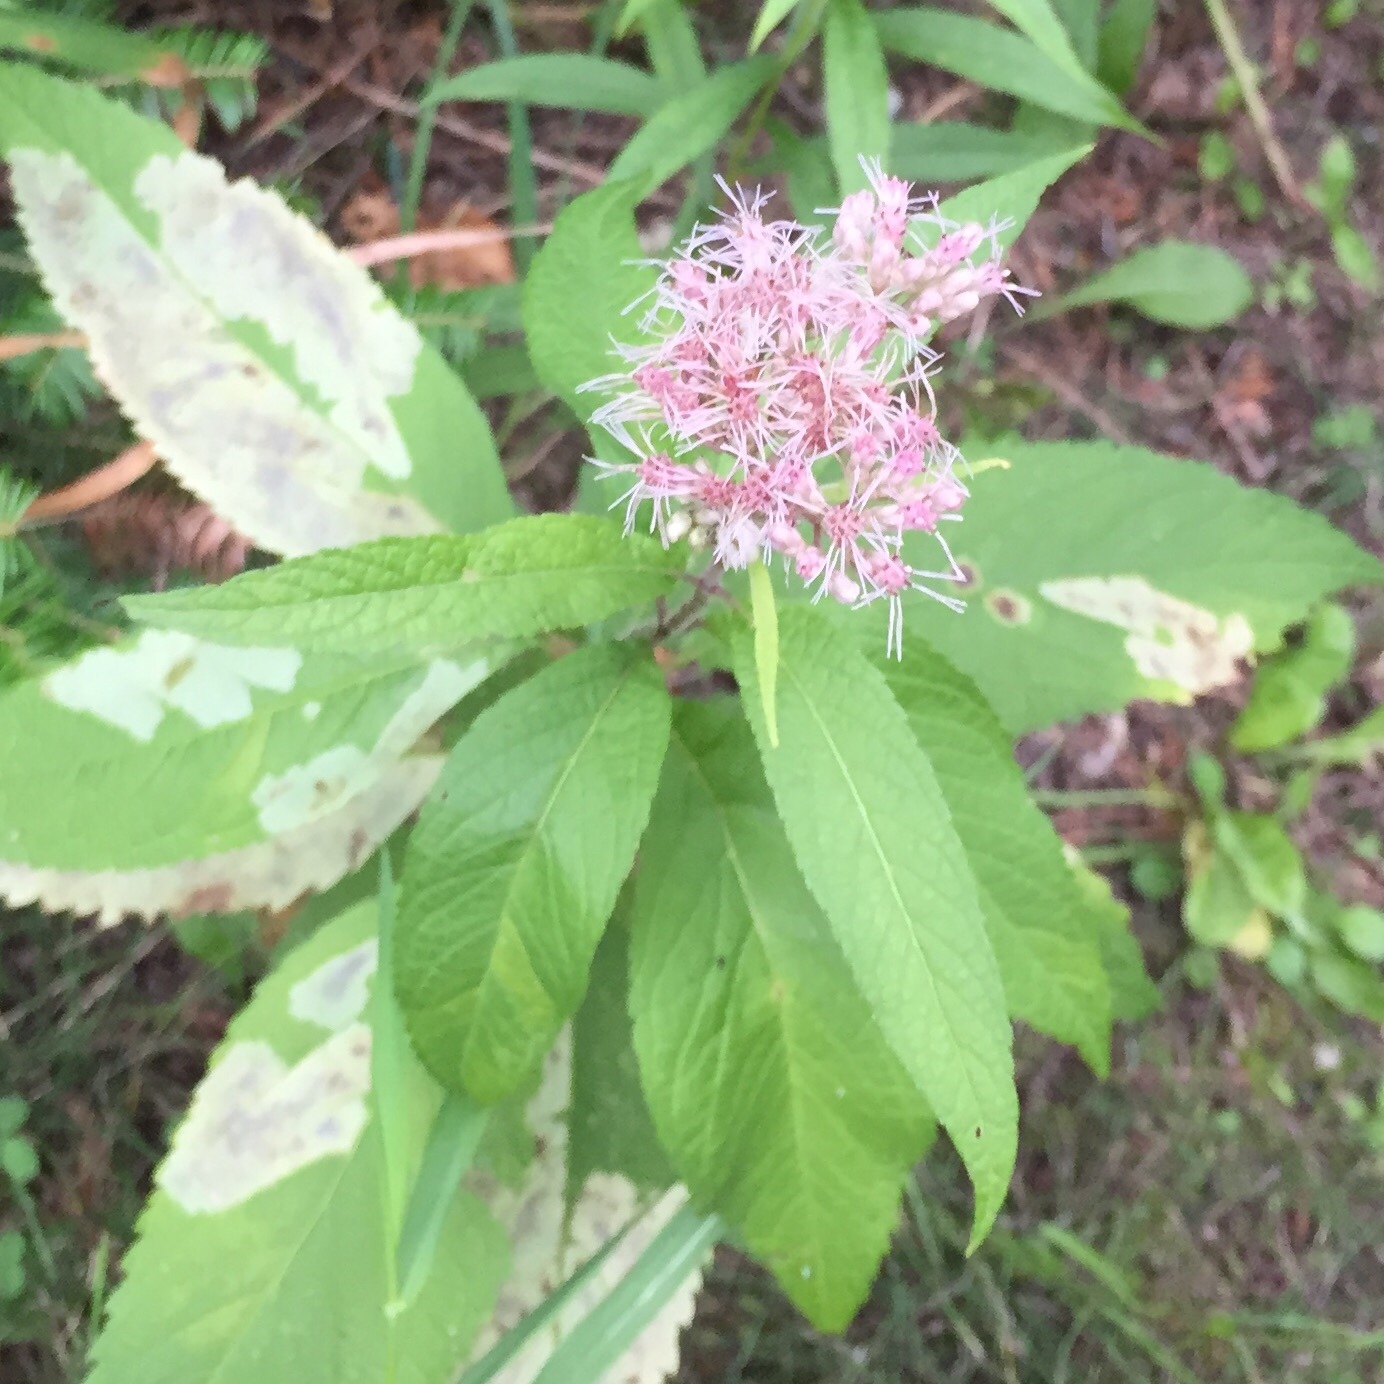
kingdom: Plantae
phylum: Tracheophyta
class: Magnoliopsida
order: Asterales
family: Asteraceae
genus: Eutrochium
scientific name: Eutrochium maculatum
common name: Spotted joe pye weed
